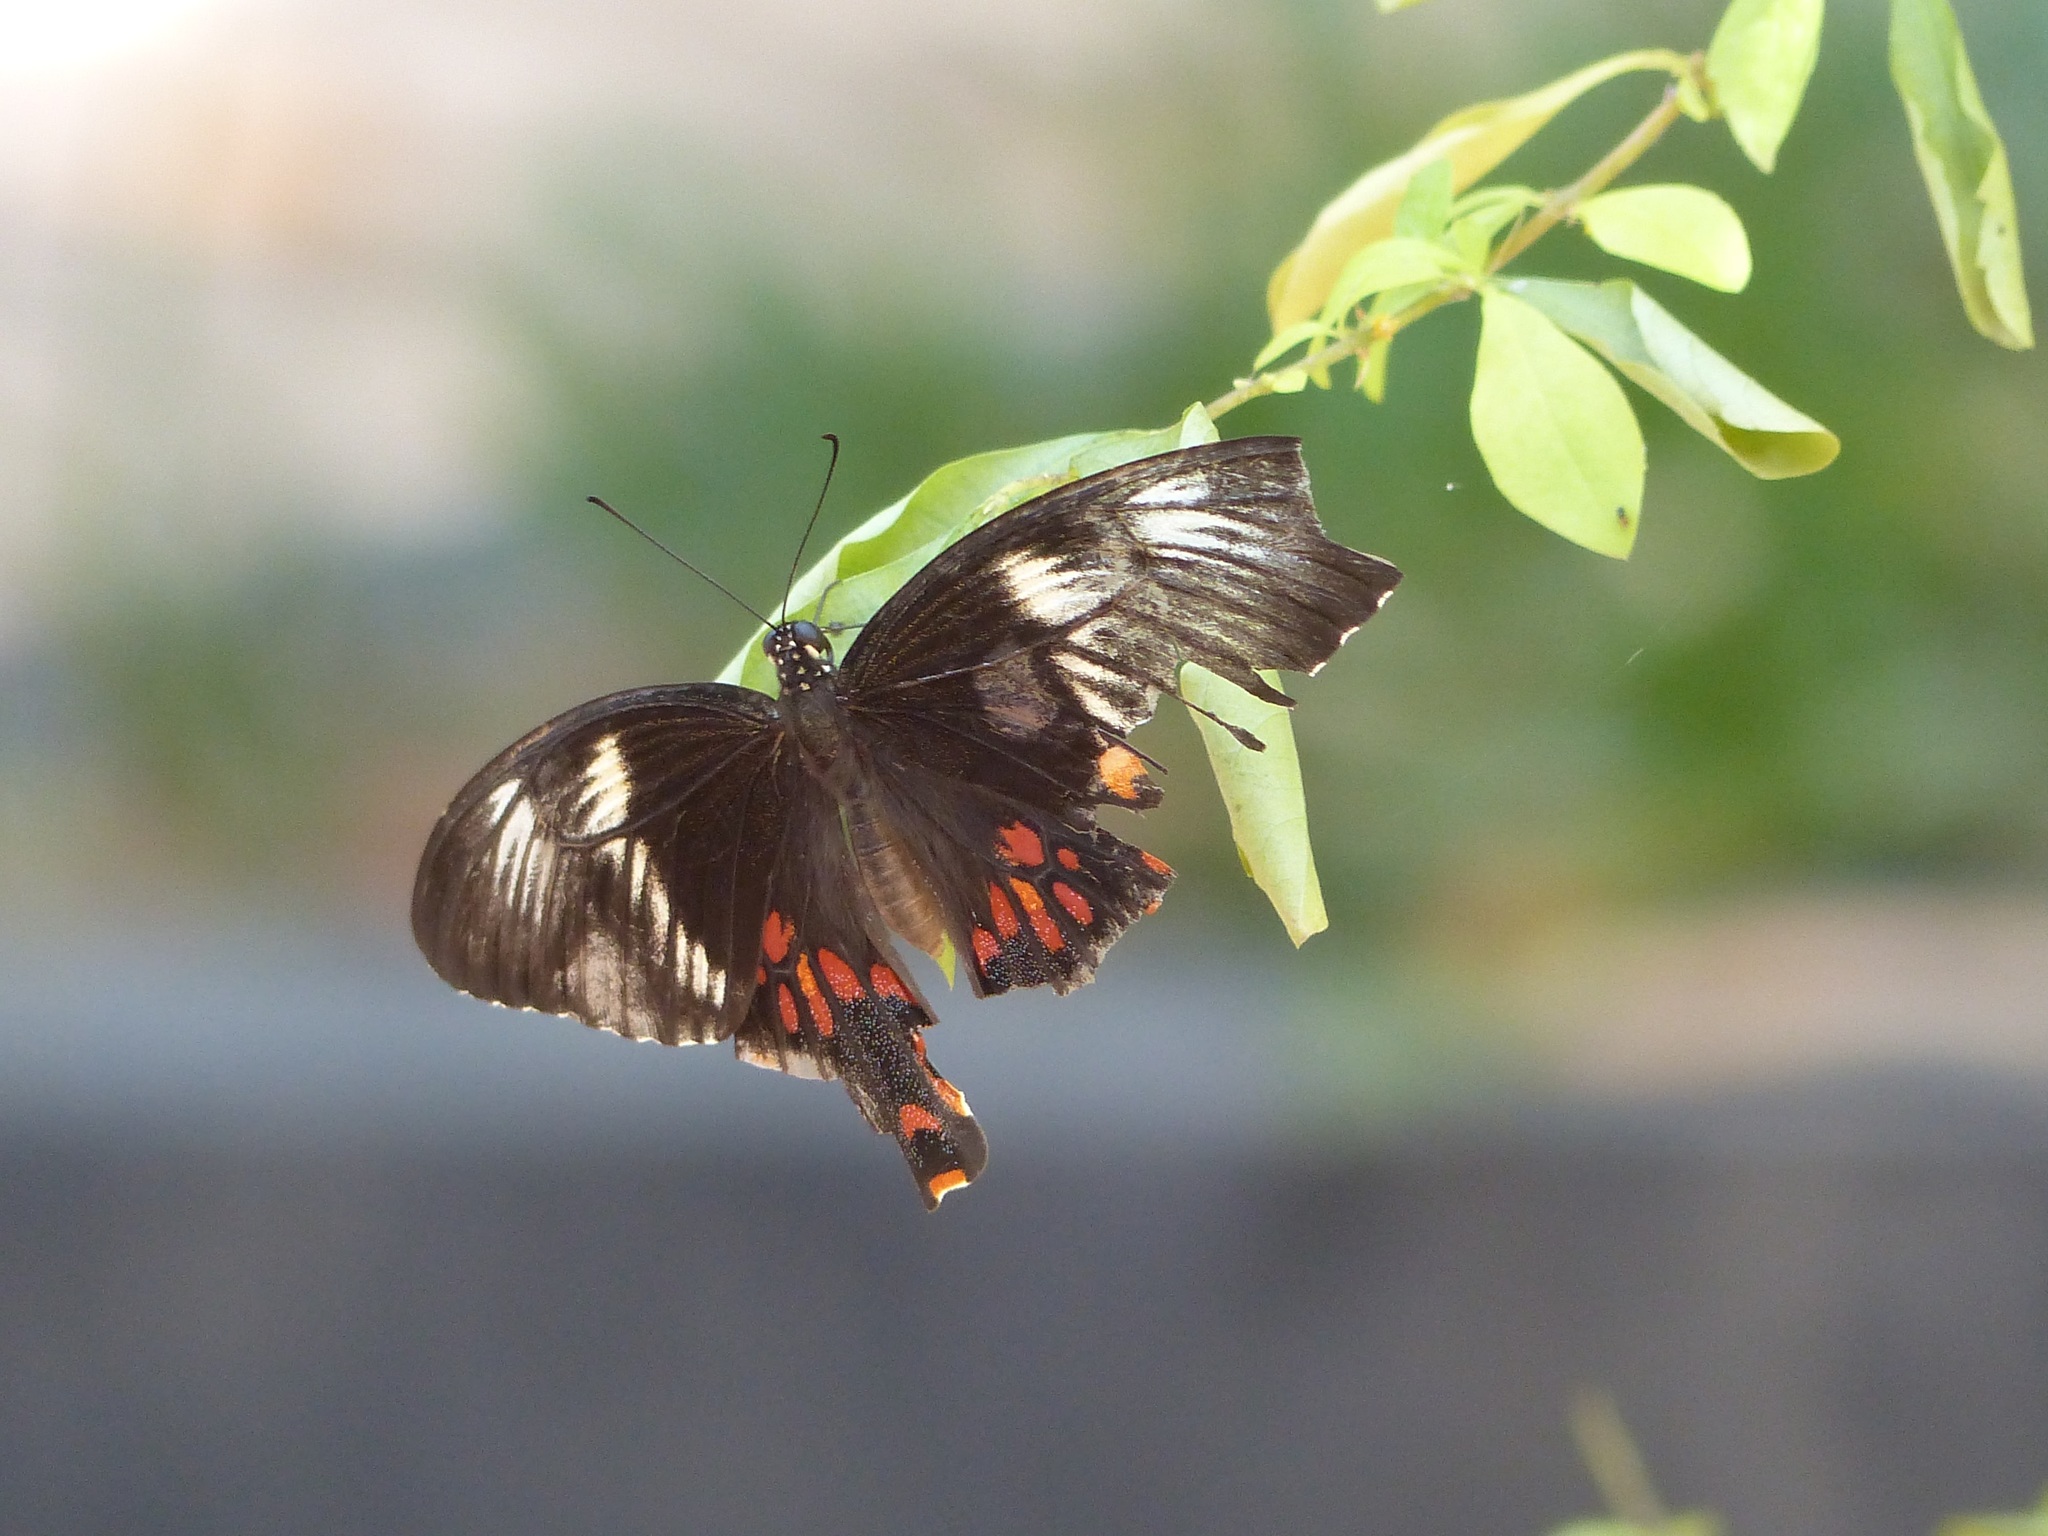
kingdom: Animalia
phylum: Arthropoda
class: Insecta
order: Lepidoptera
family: Papilionidae
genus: Papilio
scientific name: Papilio polytes
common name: Common mormon
